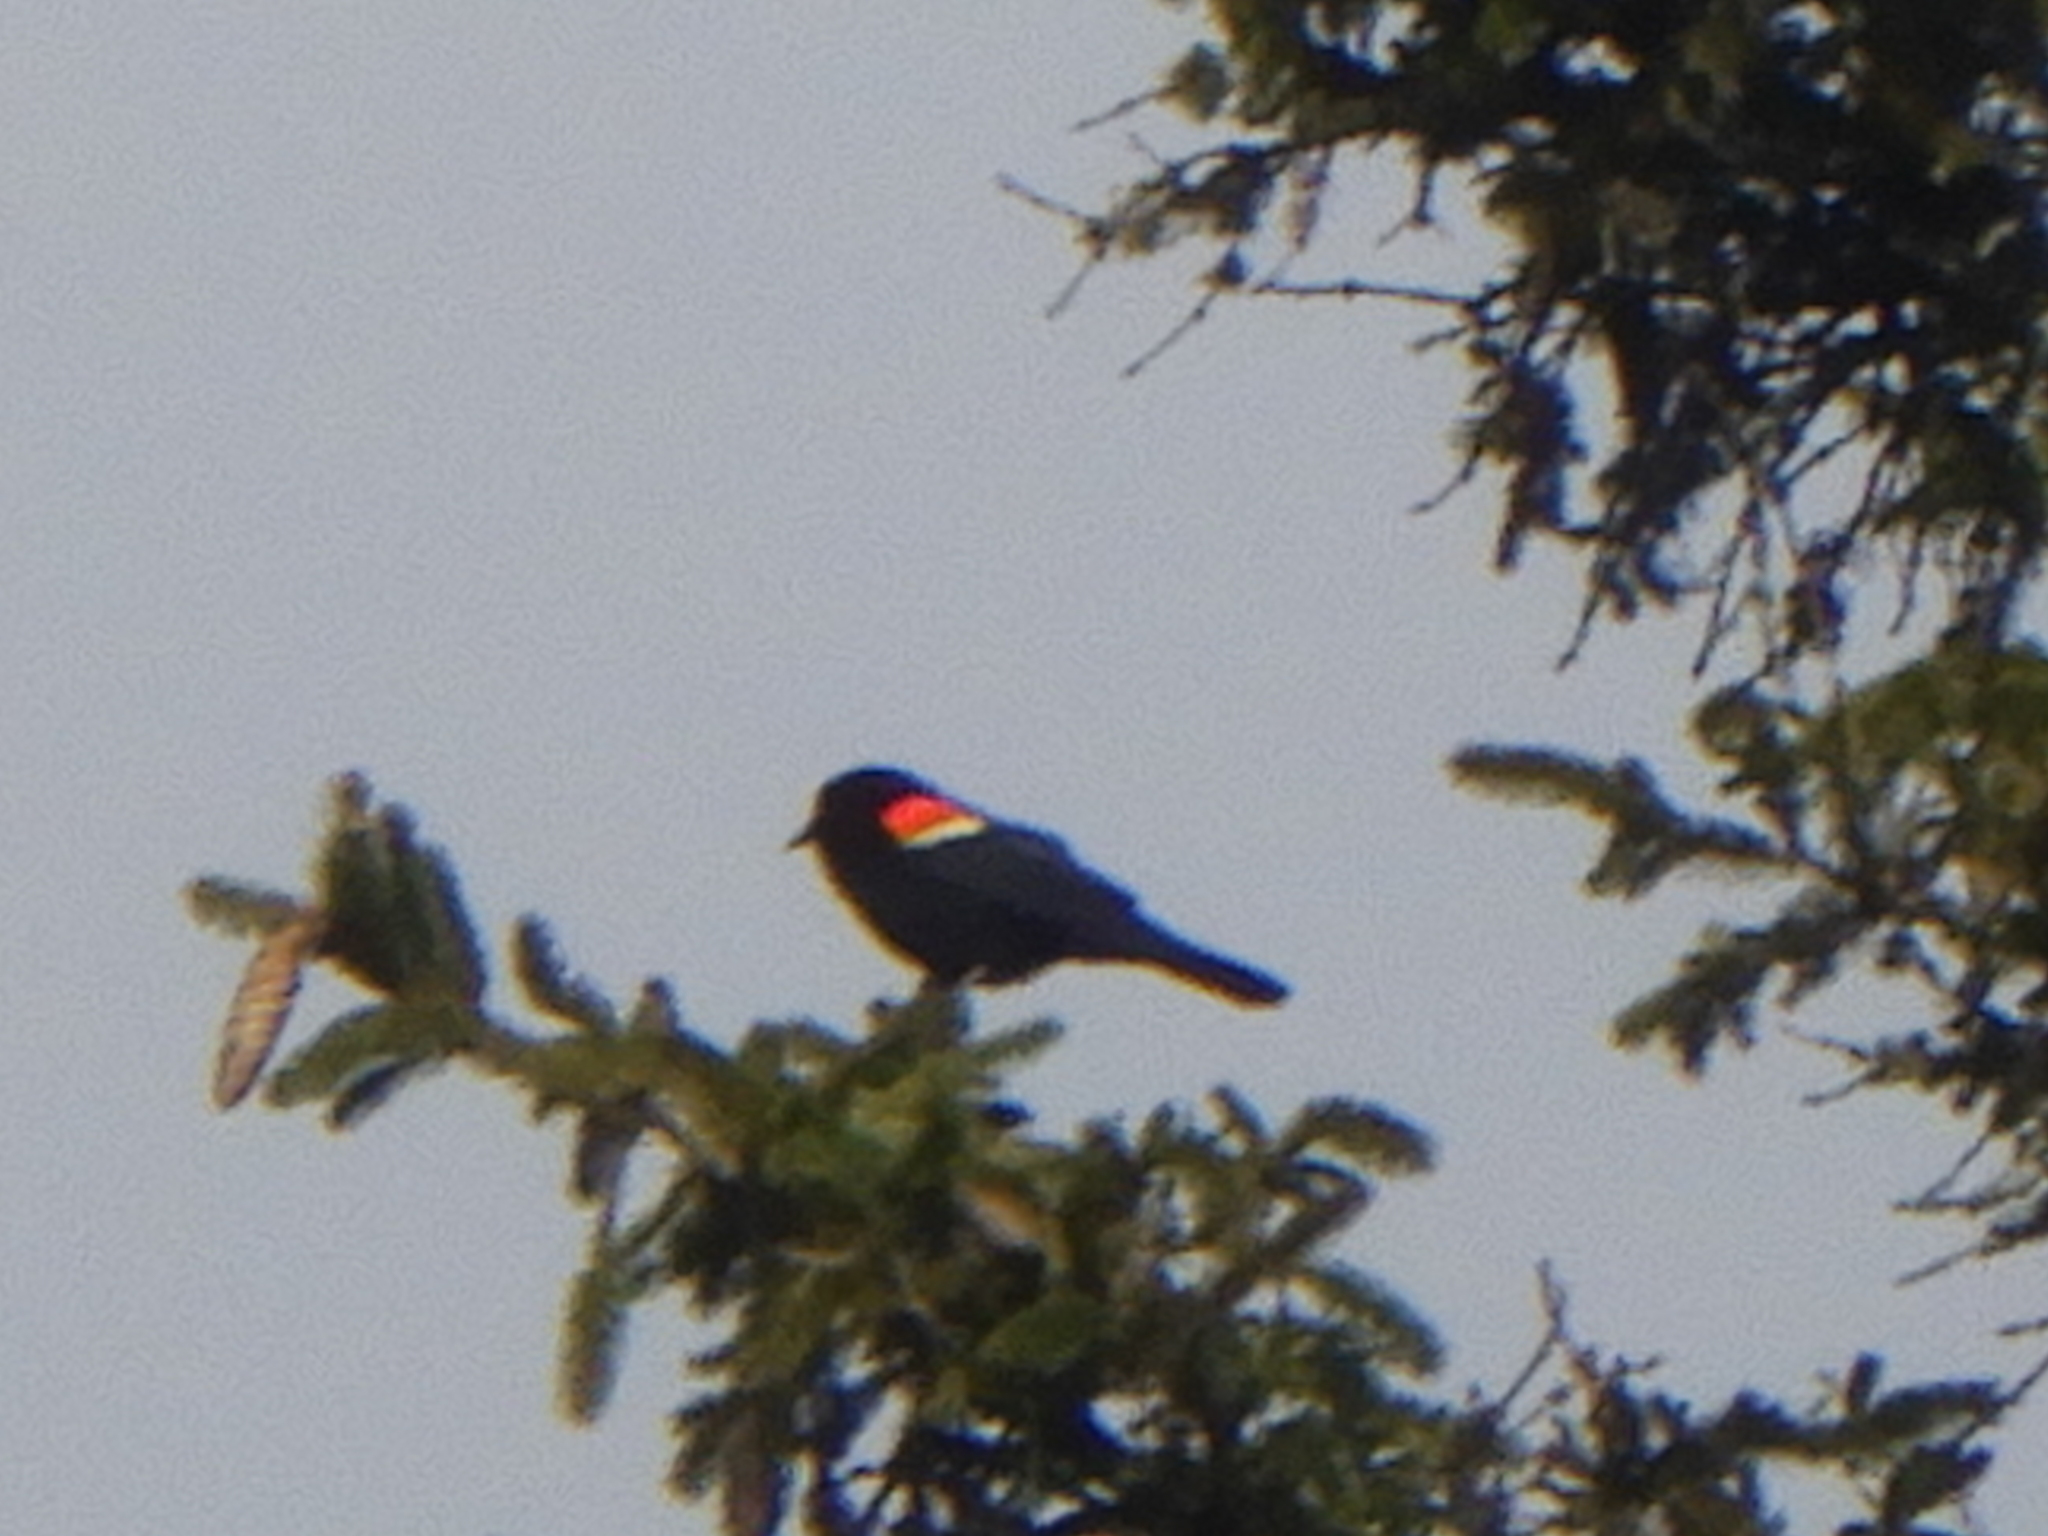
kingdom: Animalia
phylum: Chordata
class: Aves
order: Passeriformes
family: Icteridae
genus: Agelaius
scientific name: Agelaius phoeniceus
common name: Red-winged blackbird
